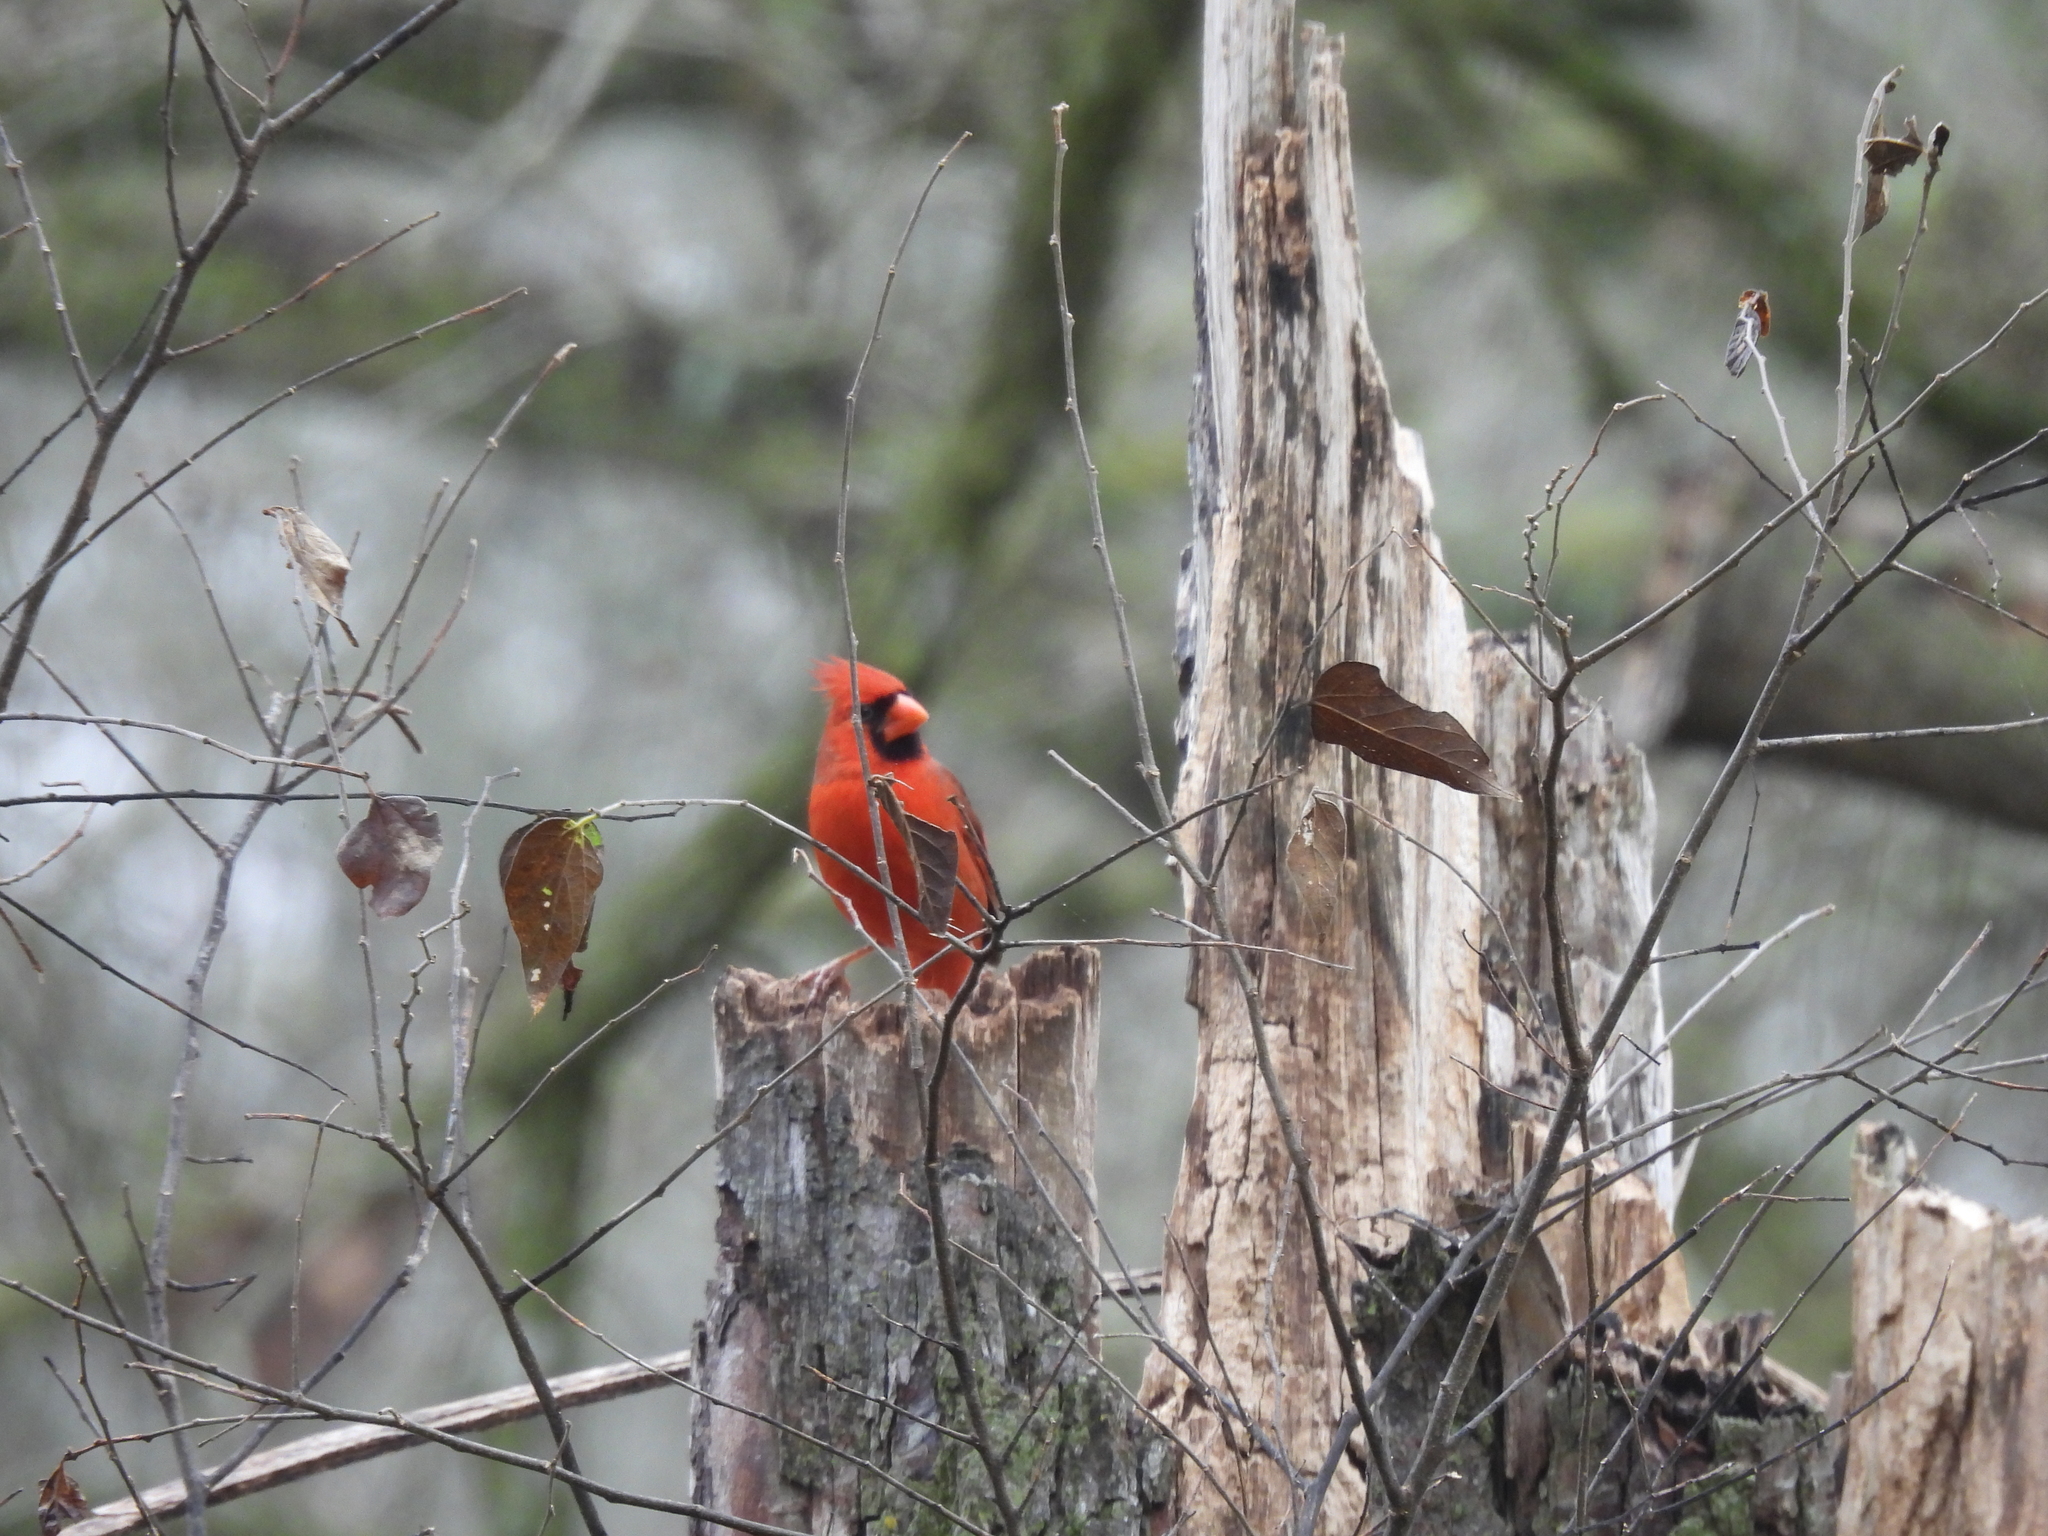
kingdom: Animalia
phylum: Chordata
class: Aves
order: Passeriformes
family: Cardinalidae
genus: Cardinalis
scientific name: Cardinalis cardinalis
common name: Northern cardinal
